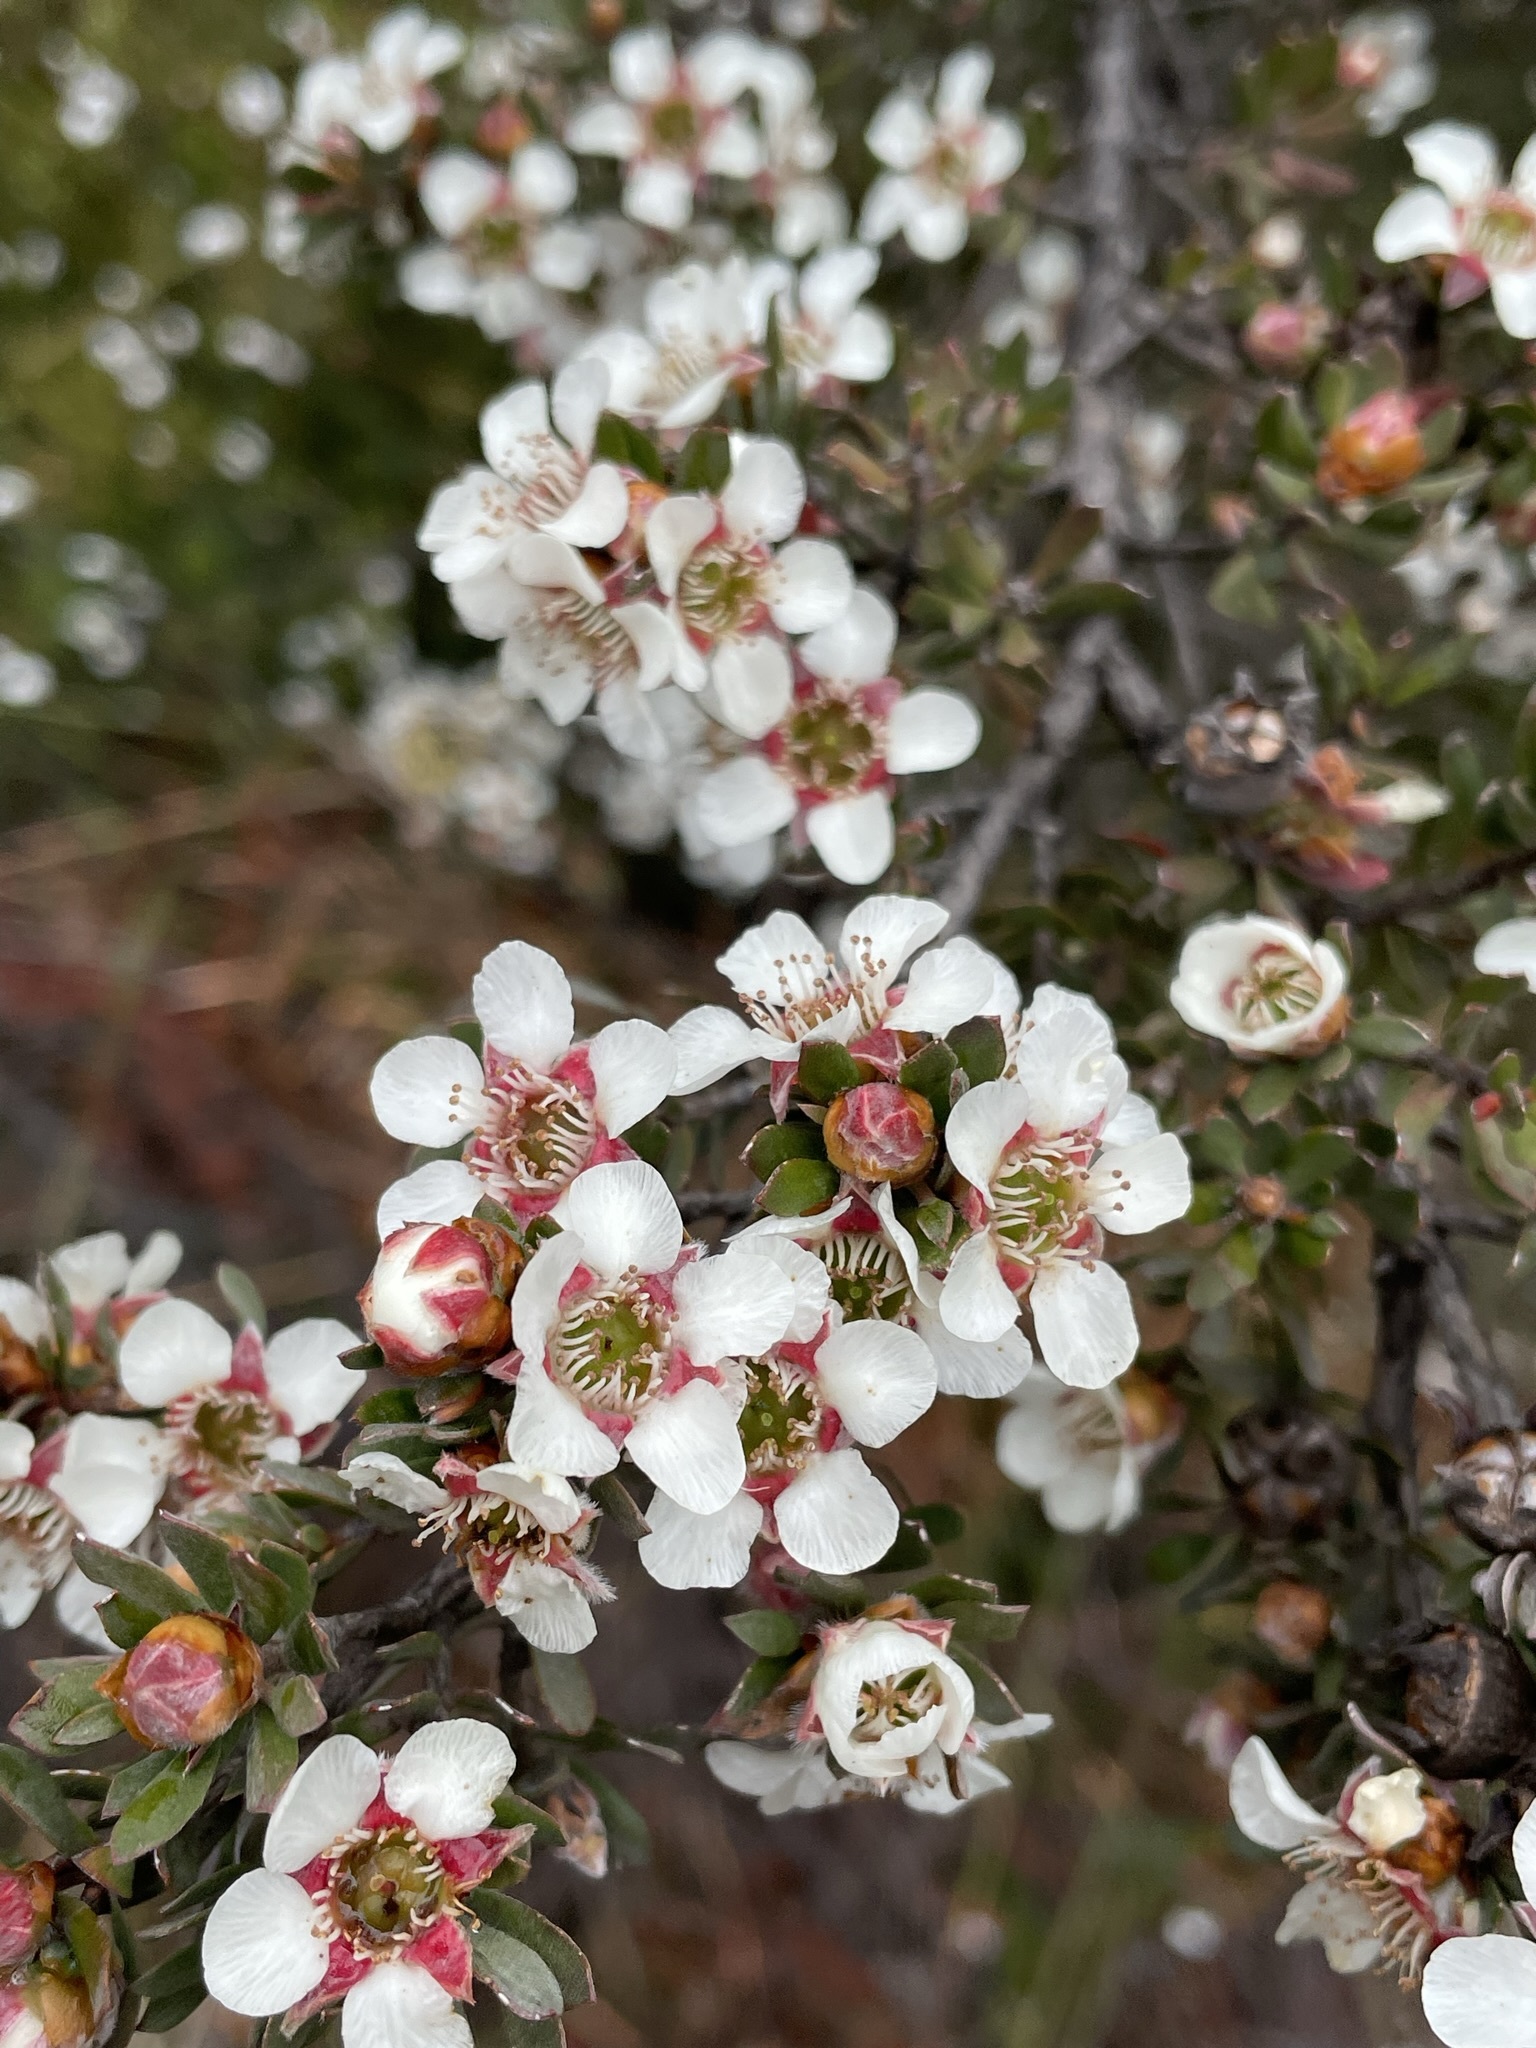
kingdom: Plantae
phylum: Tracheophyta
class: Magnoliopsida
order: Myrtales
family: Myrtaceae
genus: Leptospermum
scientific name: Leptospermum lanigerum
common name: Woolly tea-tree
